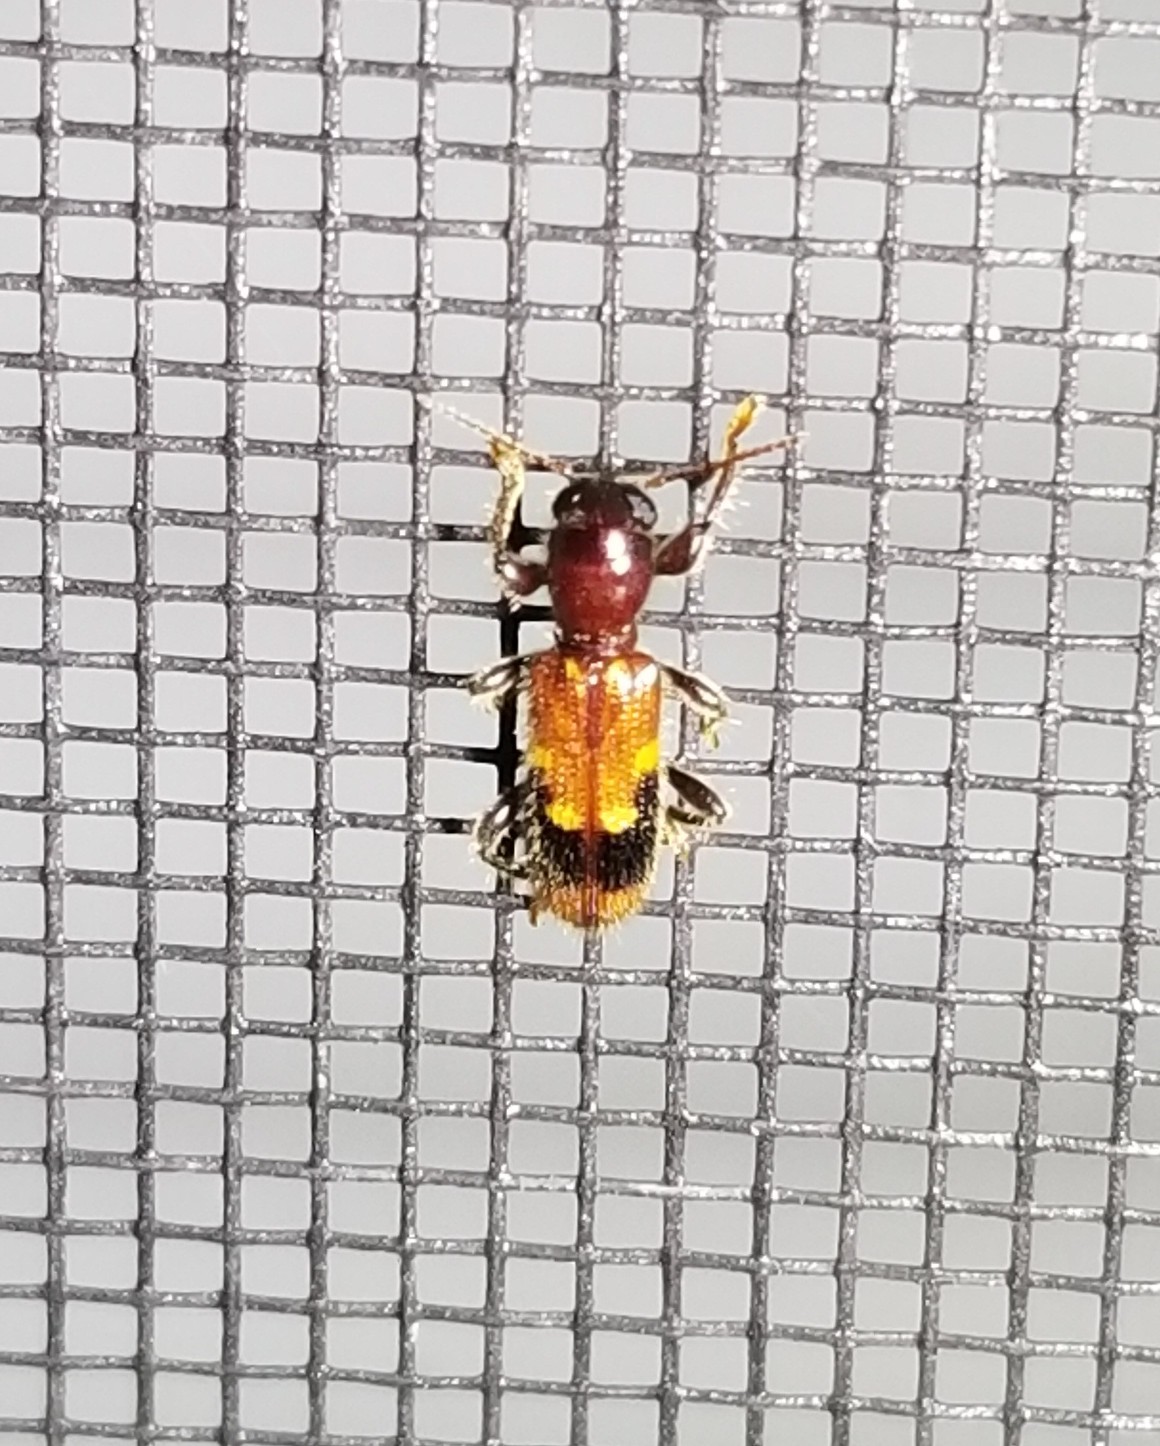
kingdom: Animalia
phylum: Arthropoda
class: Insecta
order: Coleoptera
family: Cleridae
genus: Priocera
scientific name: Priocera castanea
